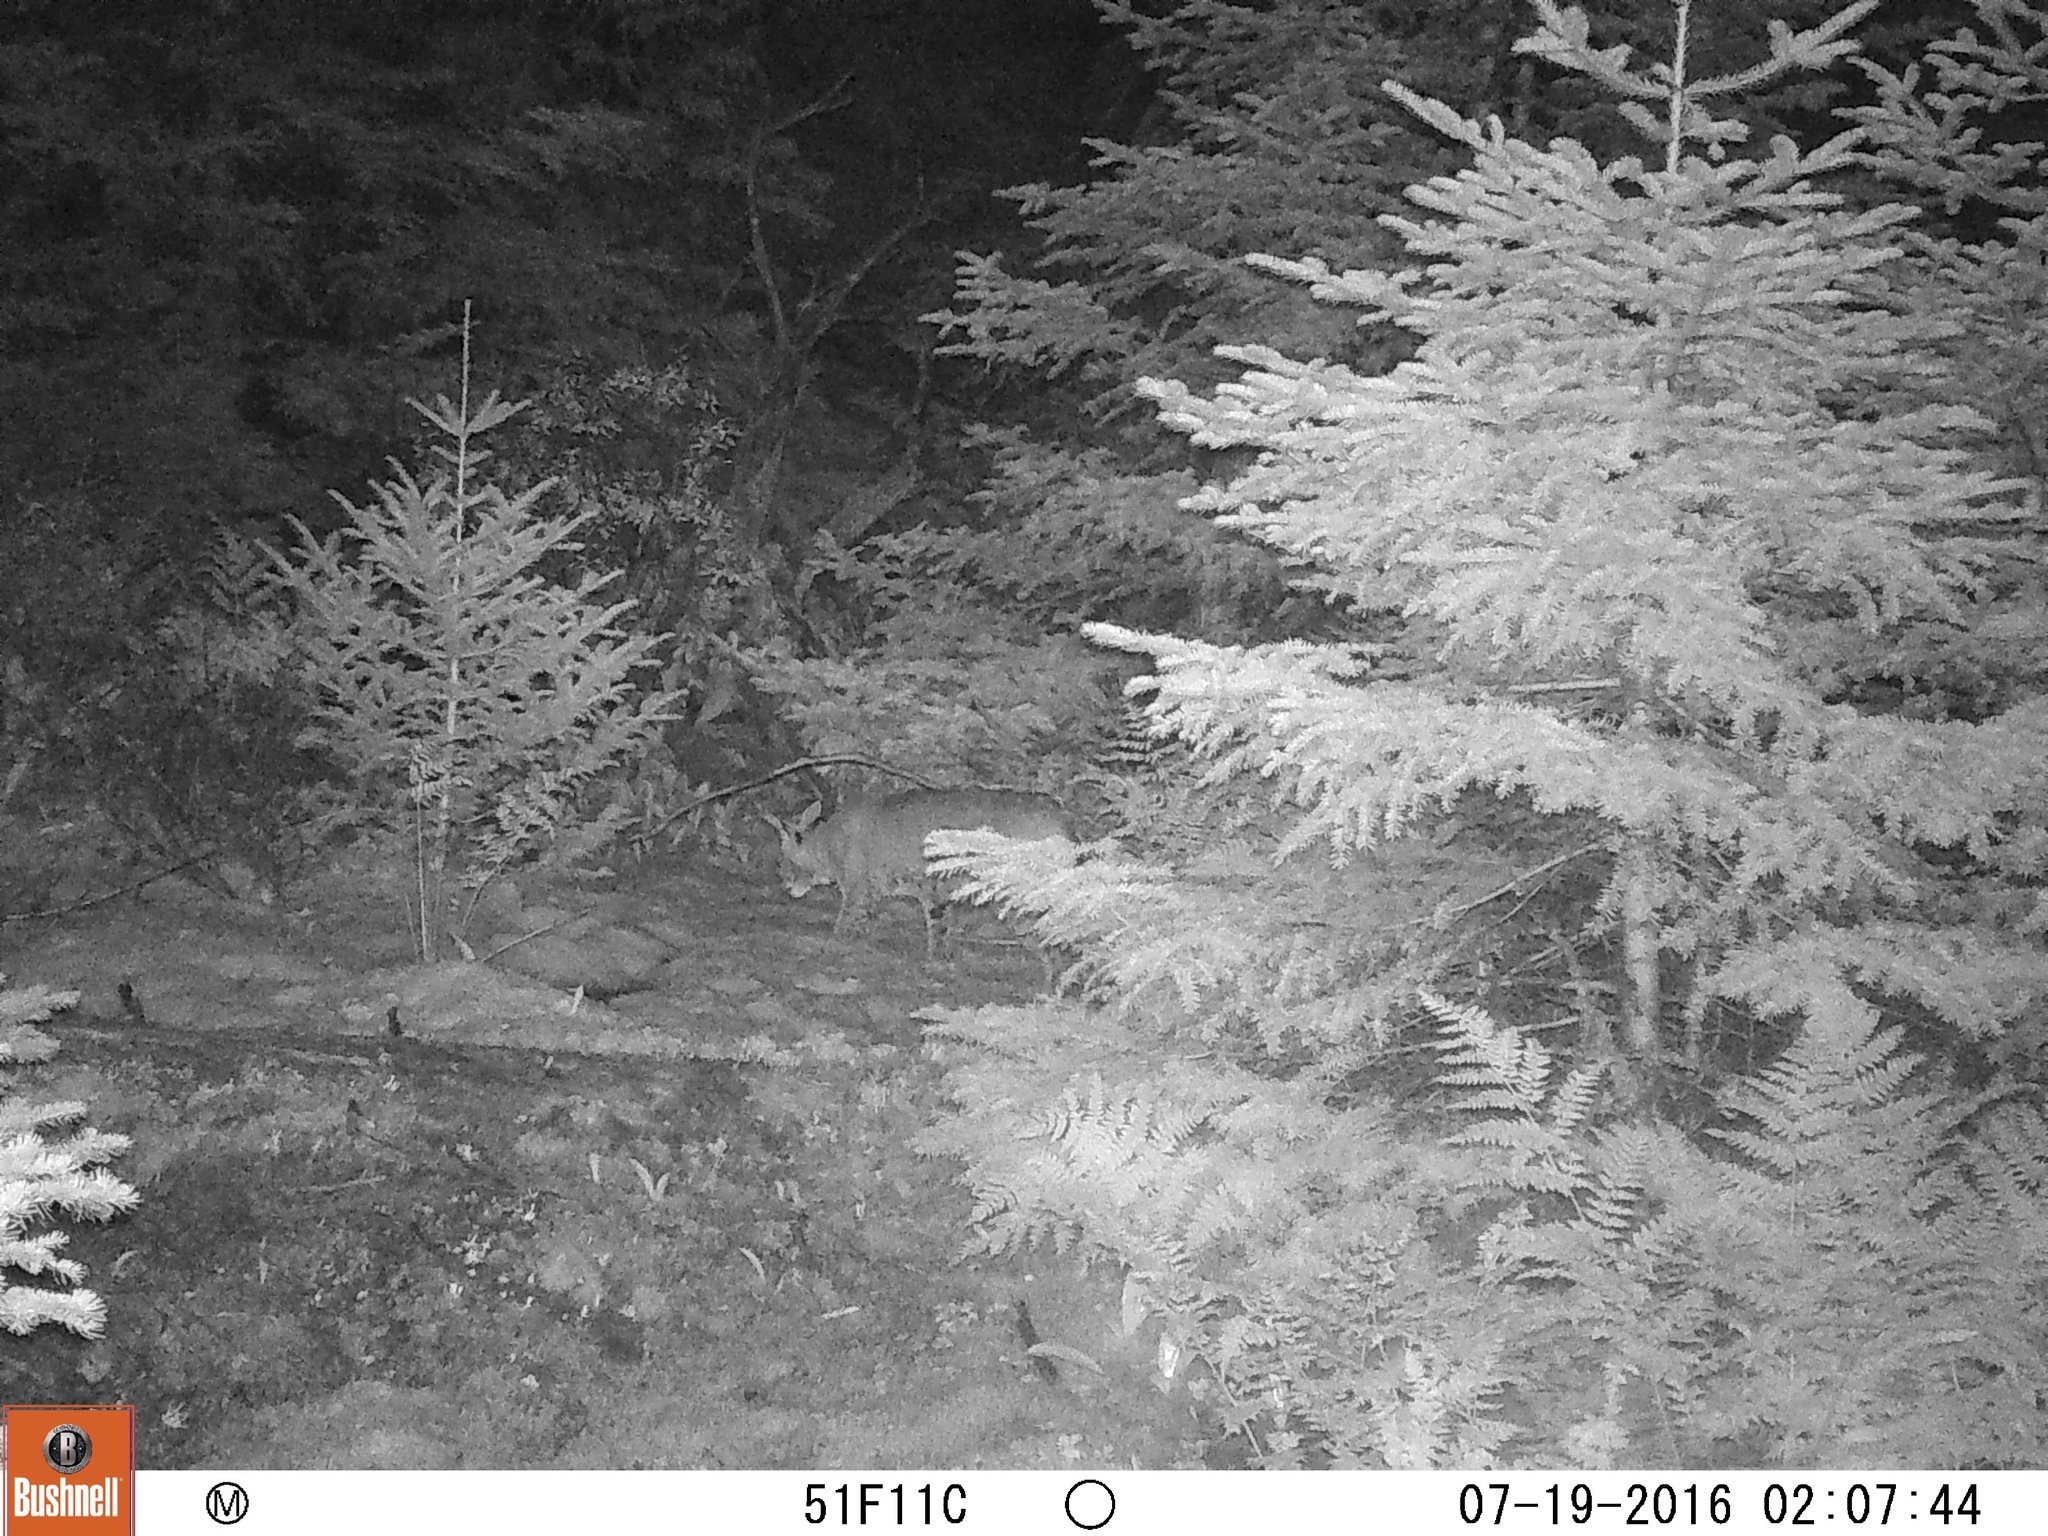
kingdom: Animalia
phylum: Chordata
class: Mammalia
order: Carnivora
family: Felidae
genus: Lynx
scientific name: Lynx rufus
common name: Bobcat
